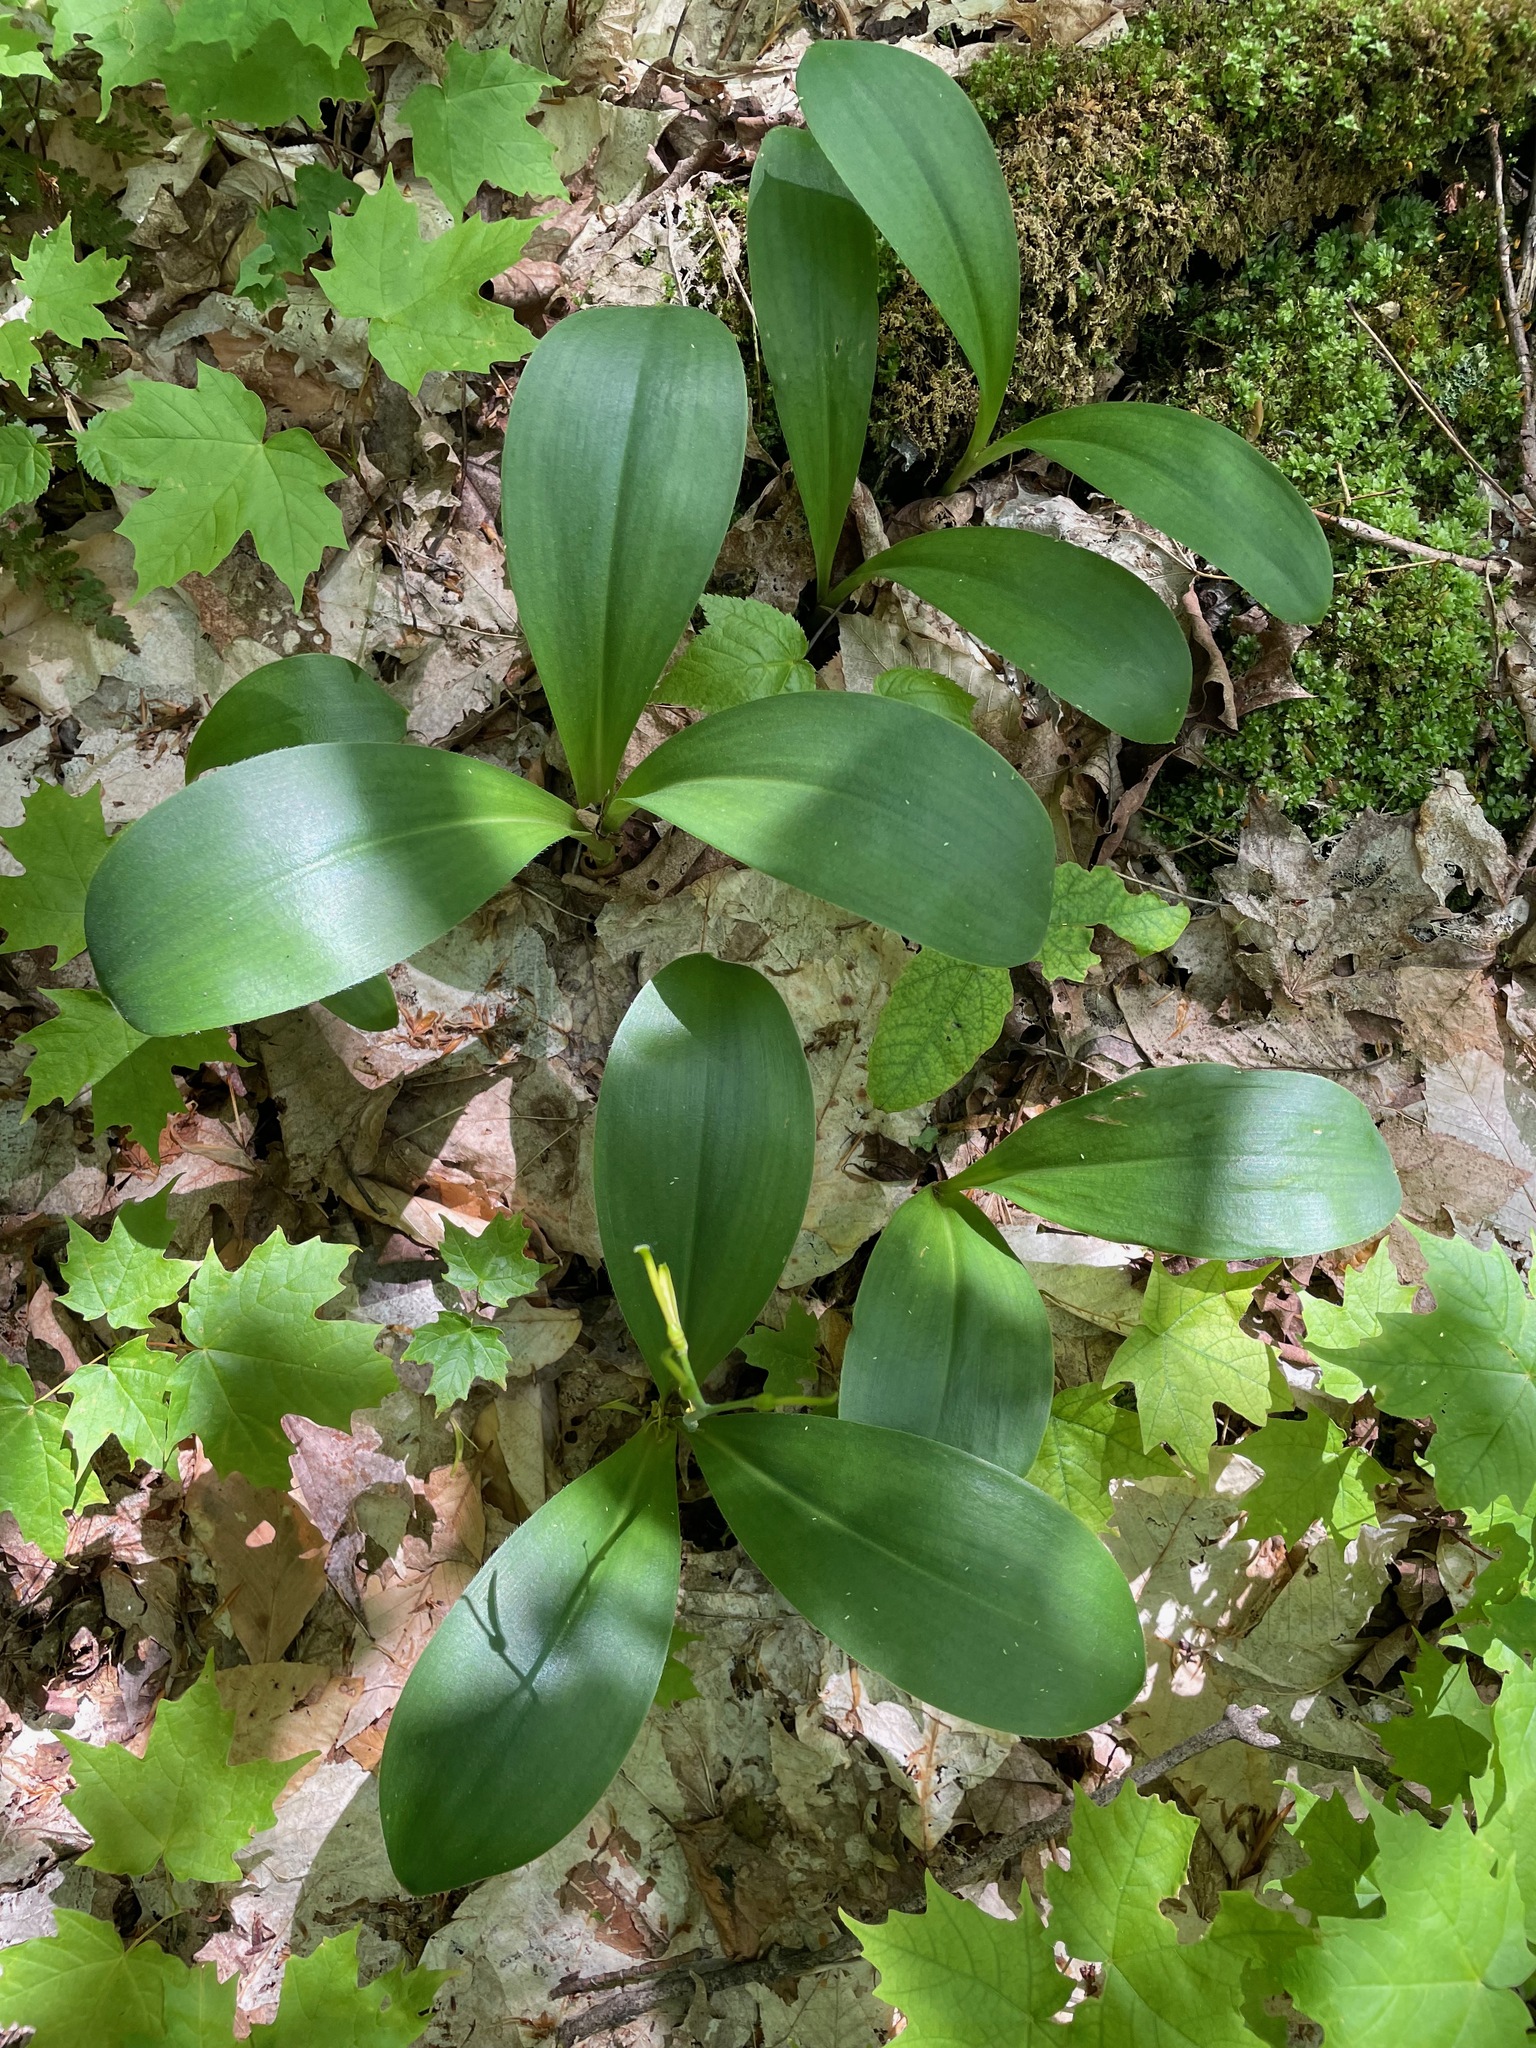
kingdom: Plantae
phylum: Tracheophyta
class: Liliopsida
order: Liliales
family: Liliaceae
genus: Clintonia
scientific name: Clintonia borealis
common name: Yellow clintonia
